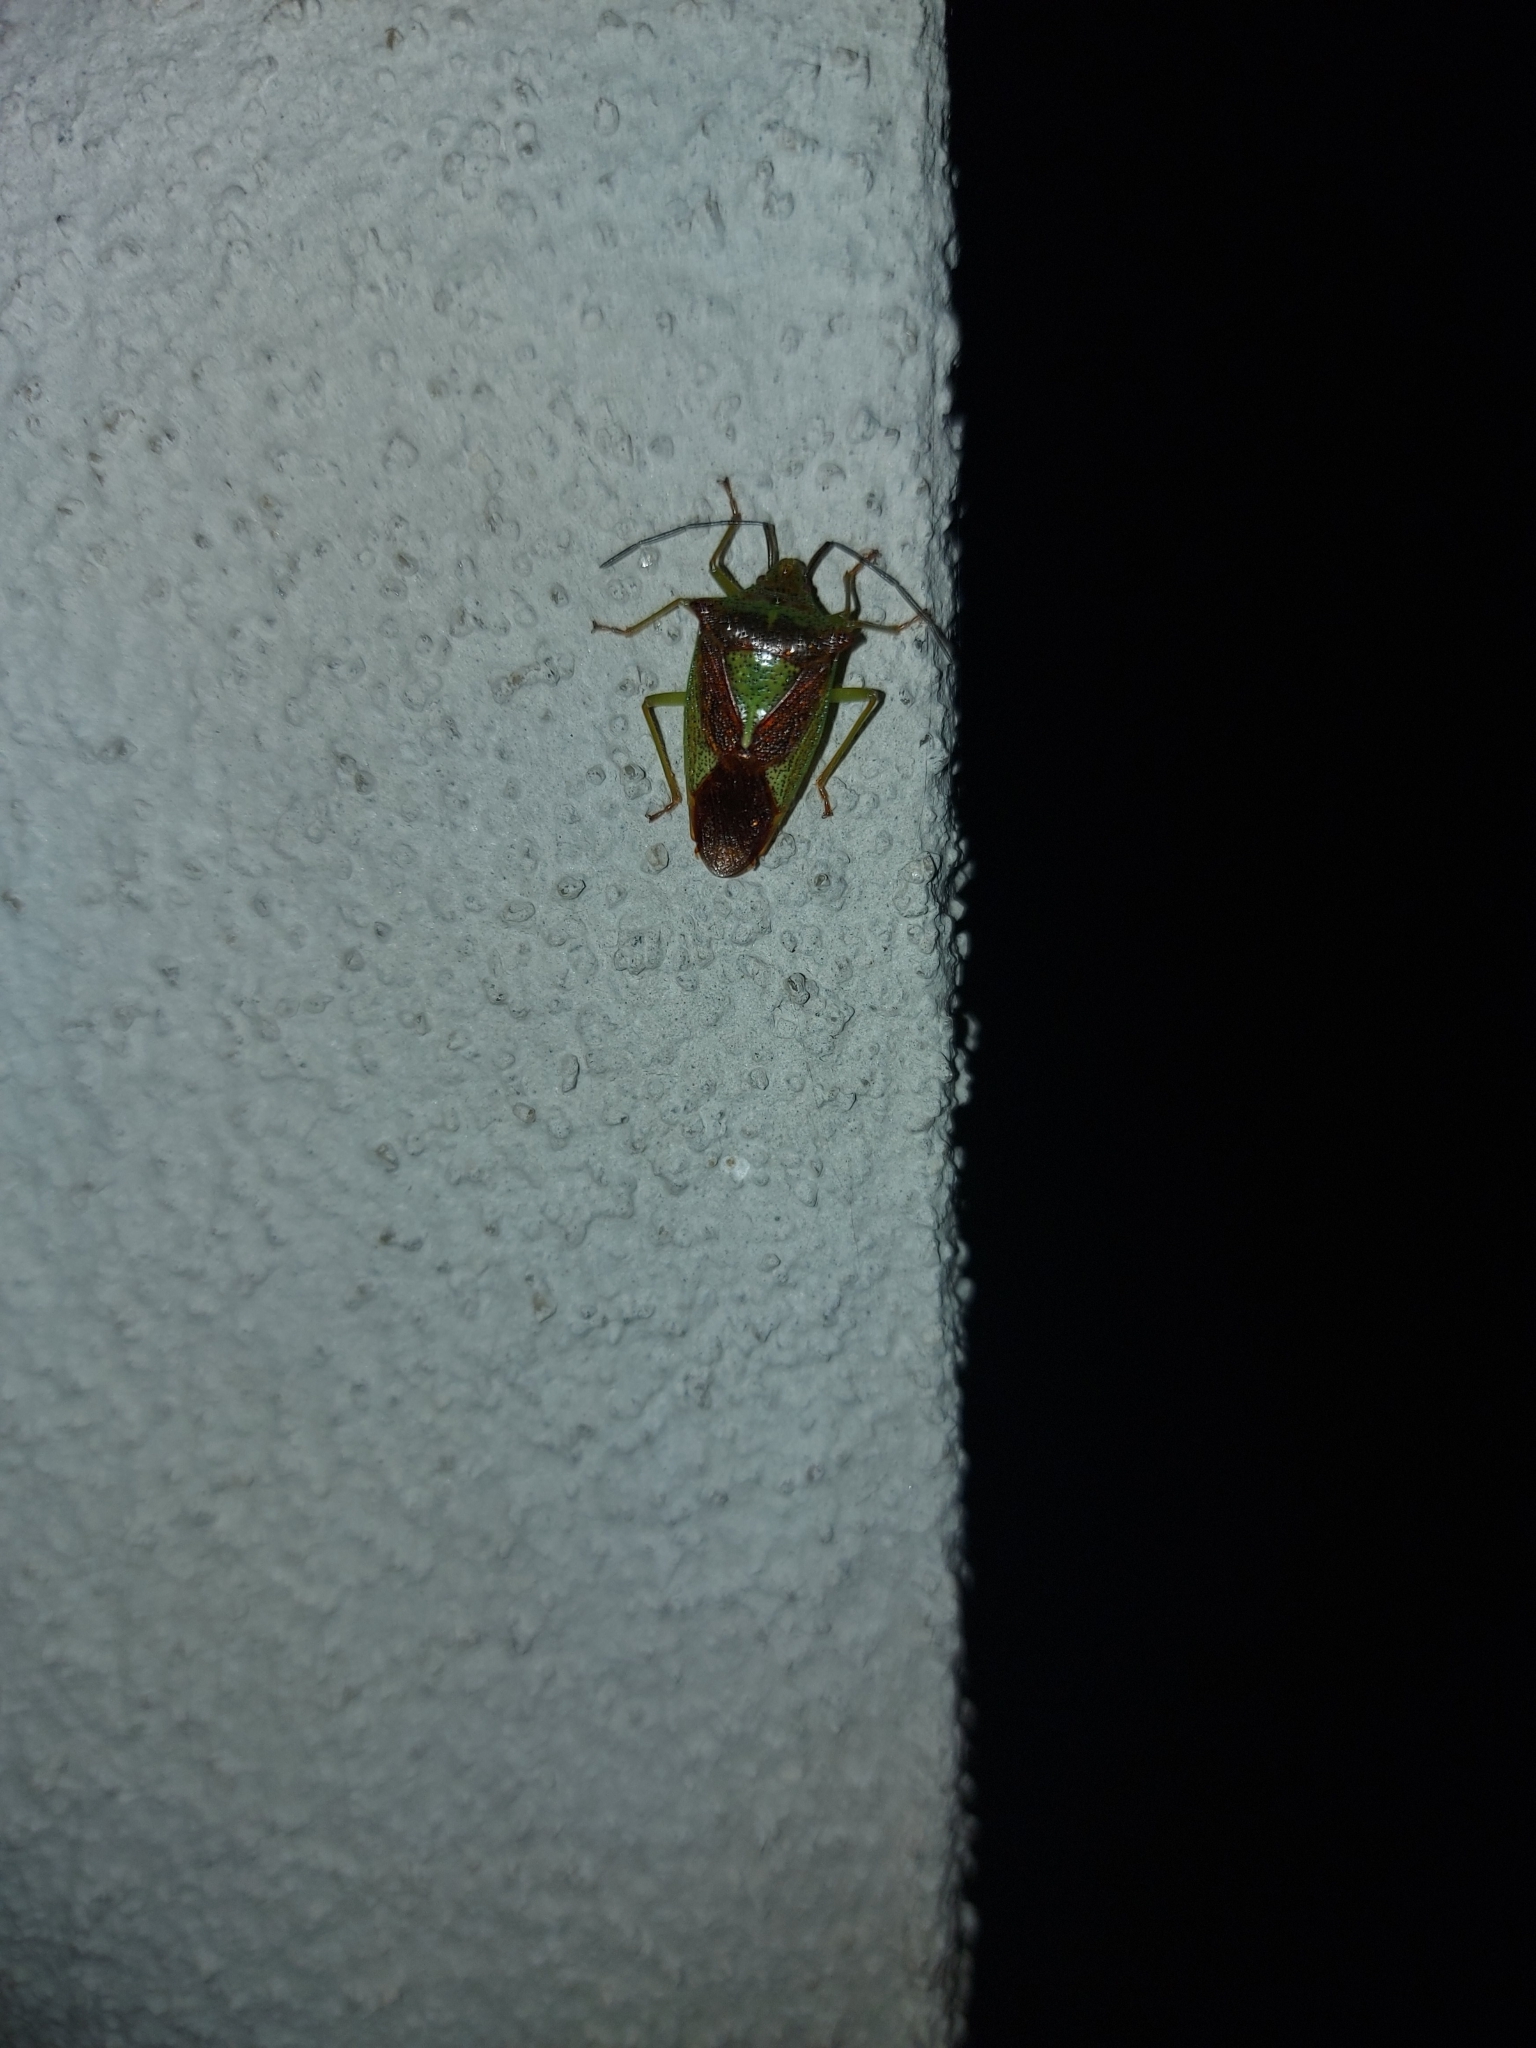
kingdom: Animalia
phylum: Arthropoda
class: Insecta
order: Hemiptera
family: Acanthosomatidae
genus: Acanthosoma
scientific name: Acanthosoma haemorrhoidale
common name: Hawthorn shieldbug
